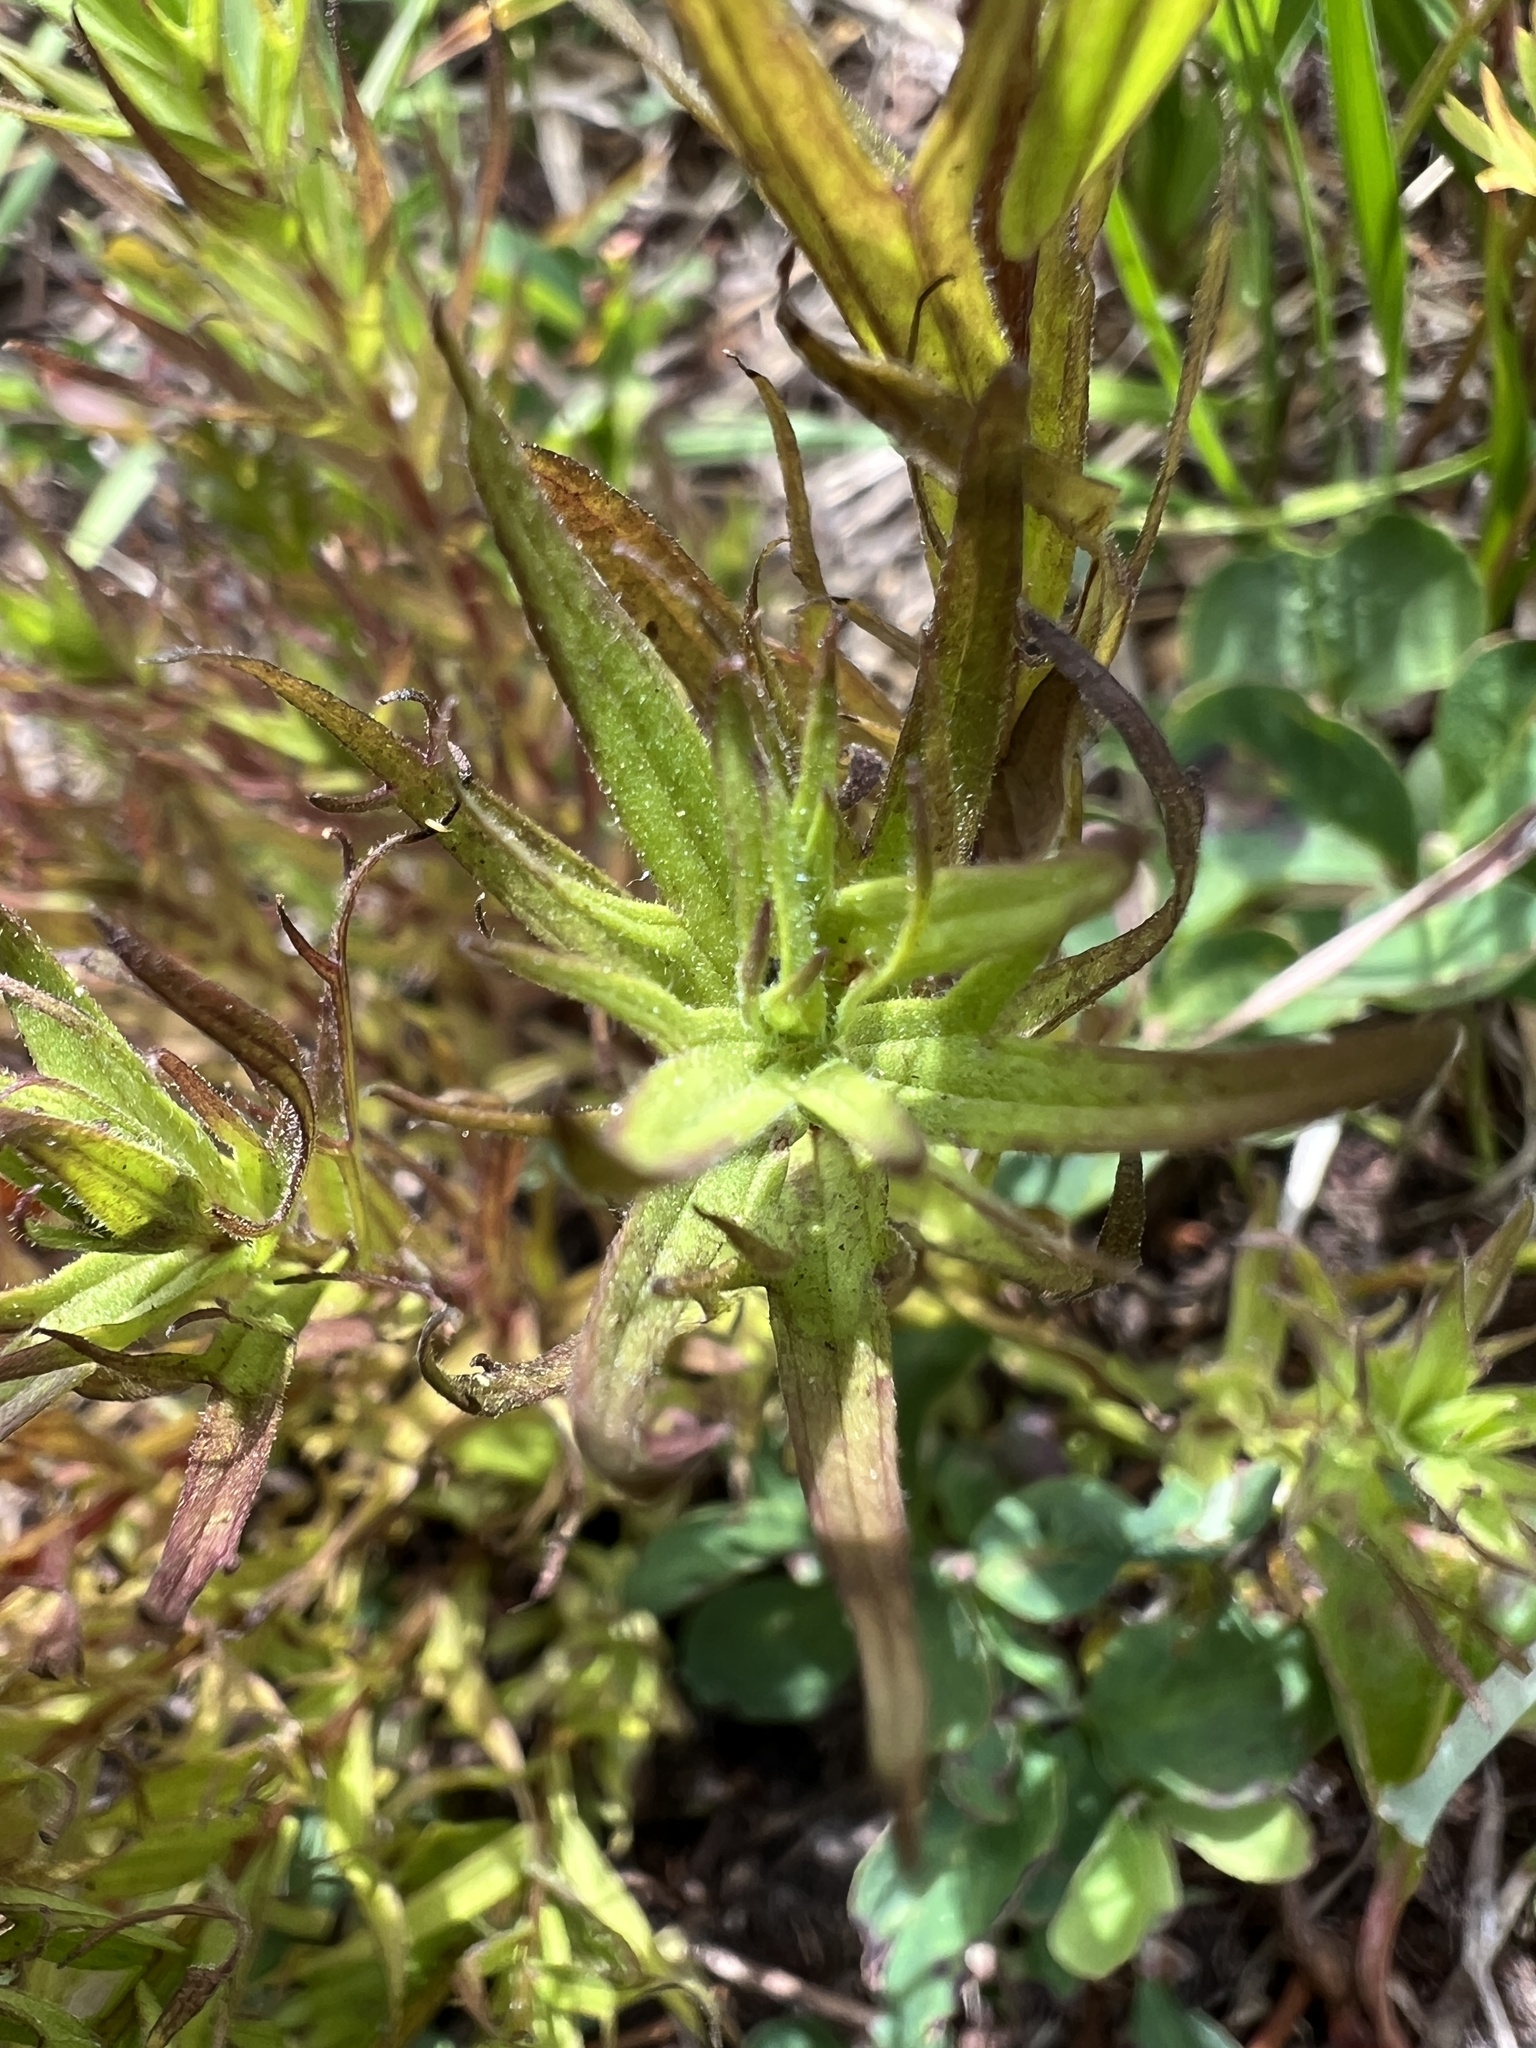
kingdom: Plantae
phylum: Tracheophyta
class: Magnoliopsida
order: Lamiales
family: Orobanchaceae
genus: Castilleja
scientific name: Castilleja parviflora
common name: Mountain paintbrush
